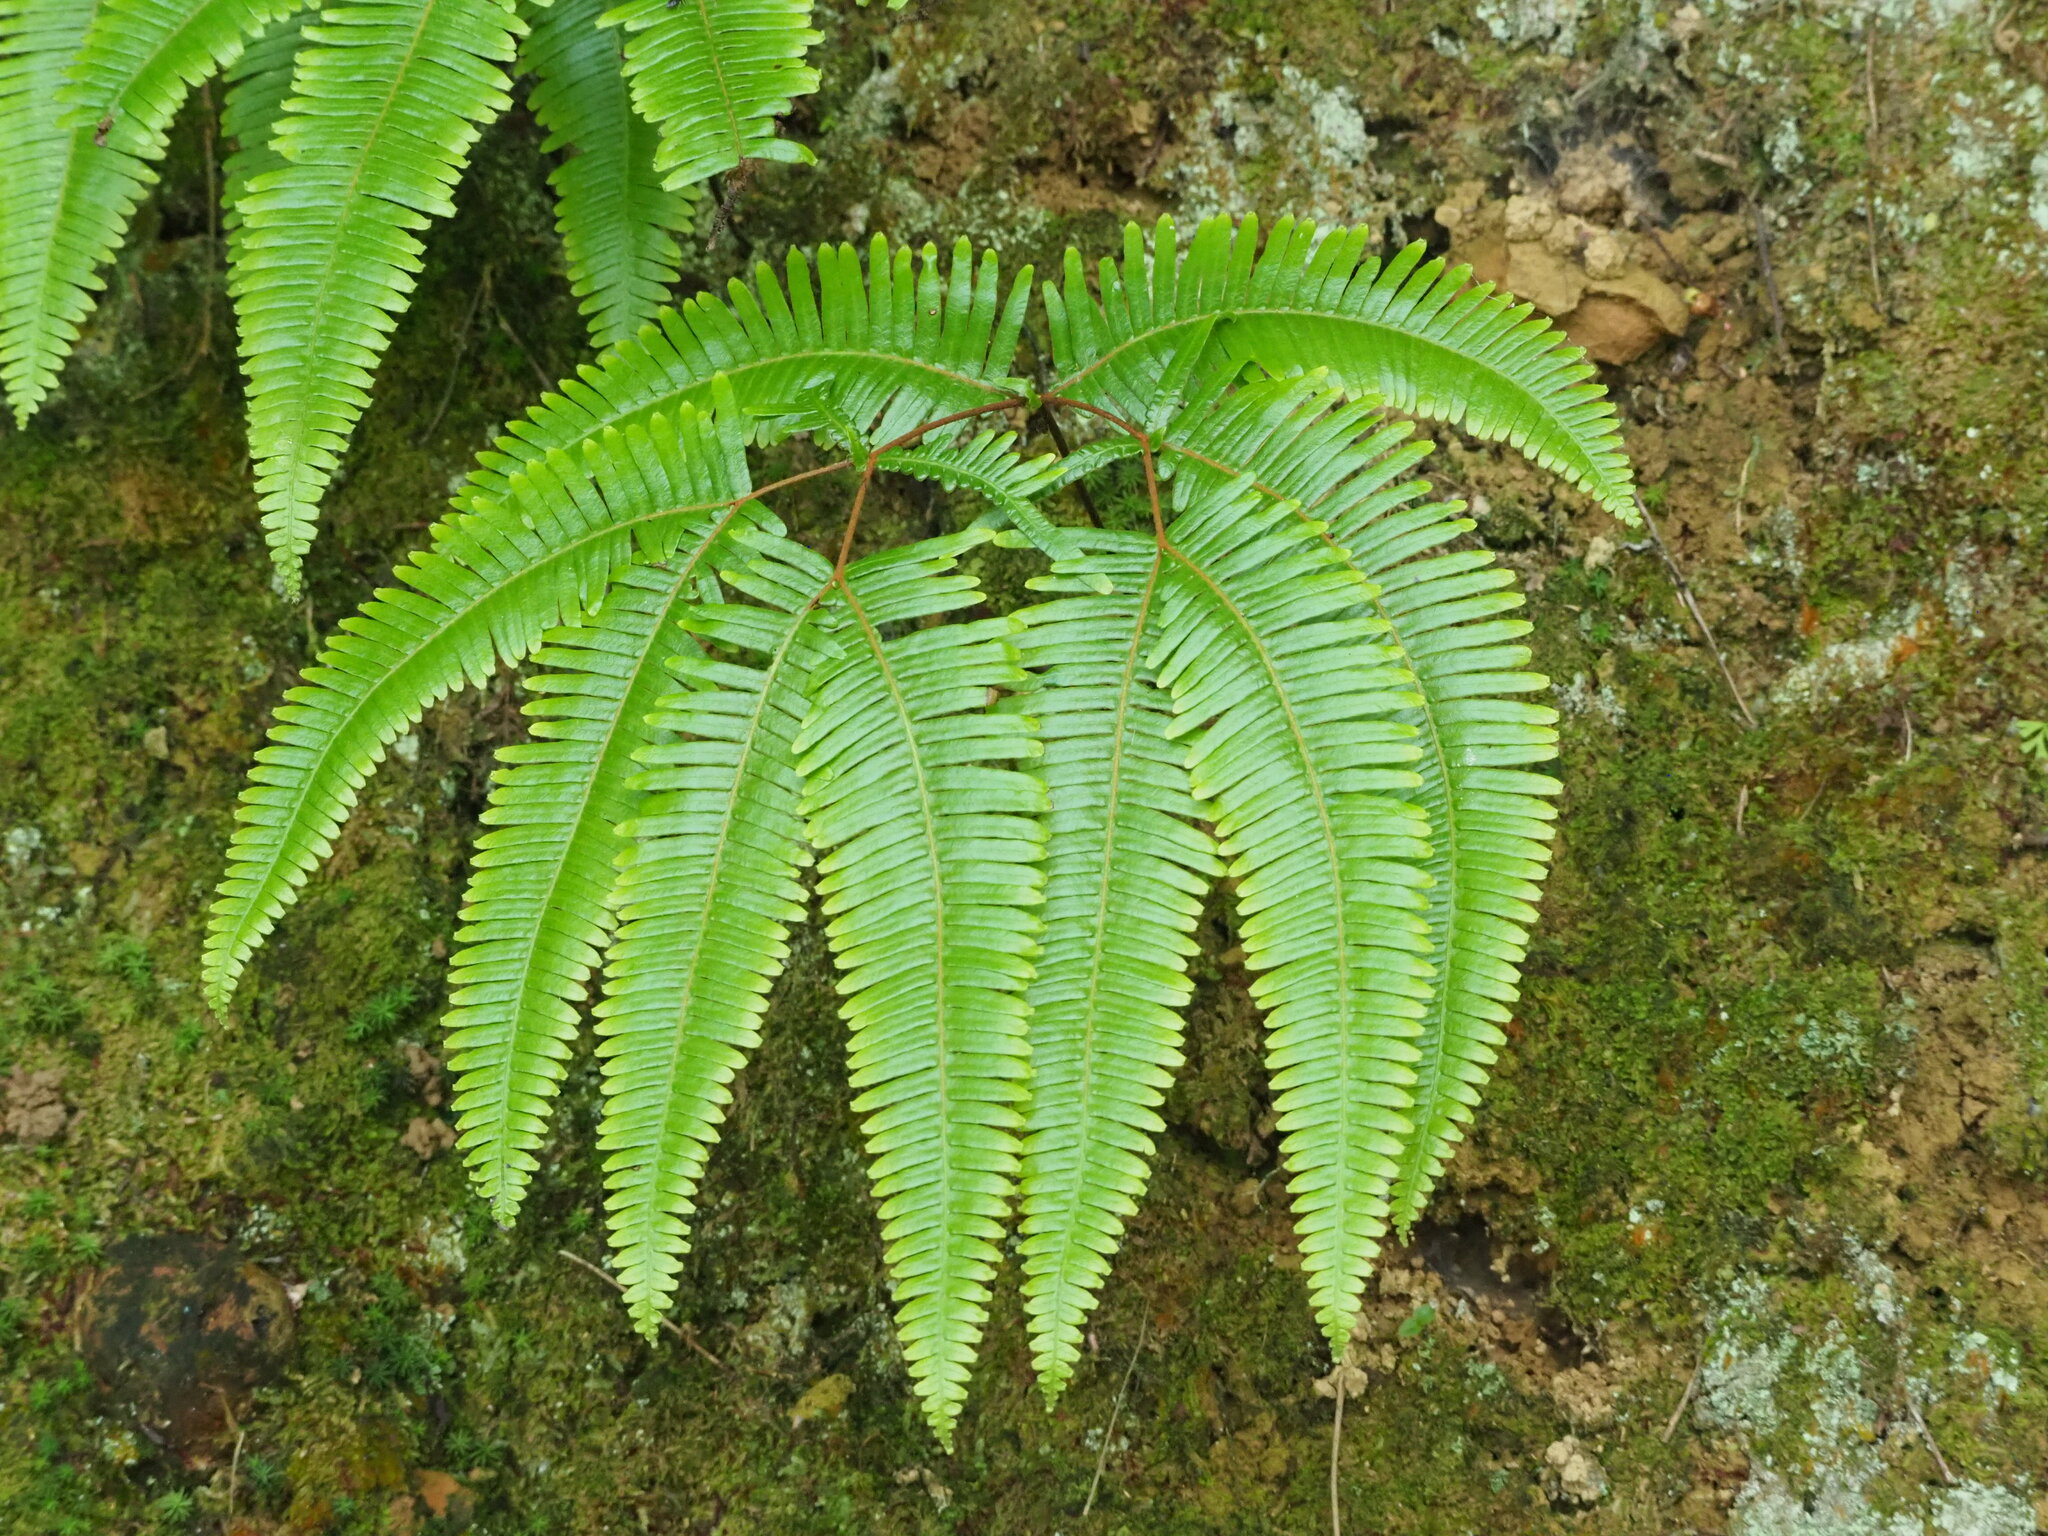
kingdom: Plantae
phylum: Tracheophyta
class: Polypodiopsida
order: Gleicheniales
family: Gleicheniaceae
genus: Dicranopteris
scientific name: Dicranopteris linearis
